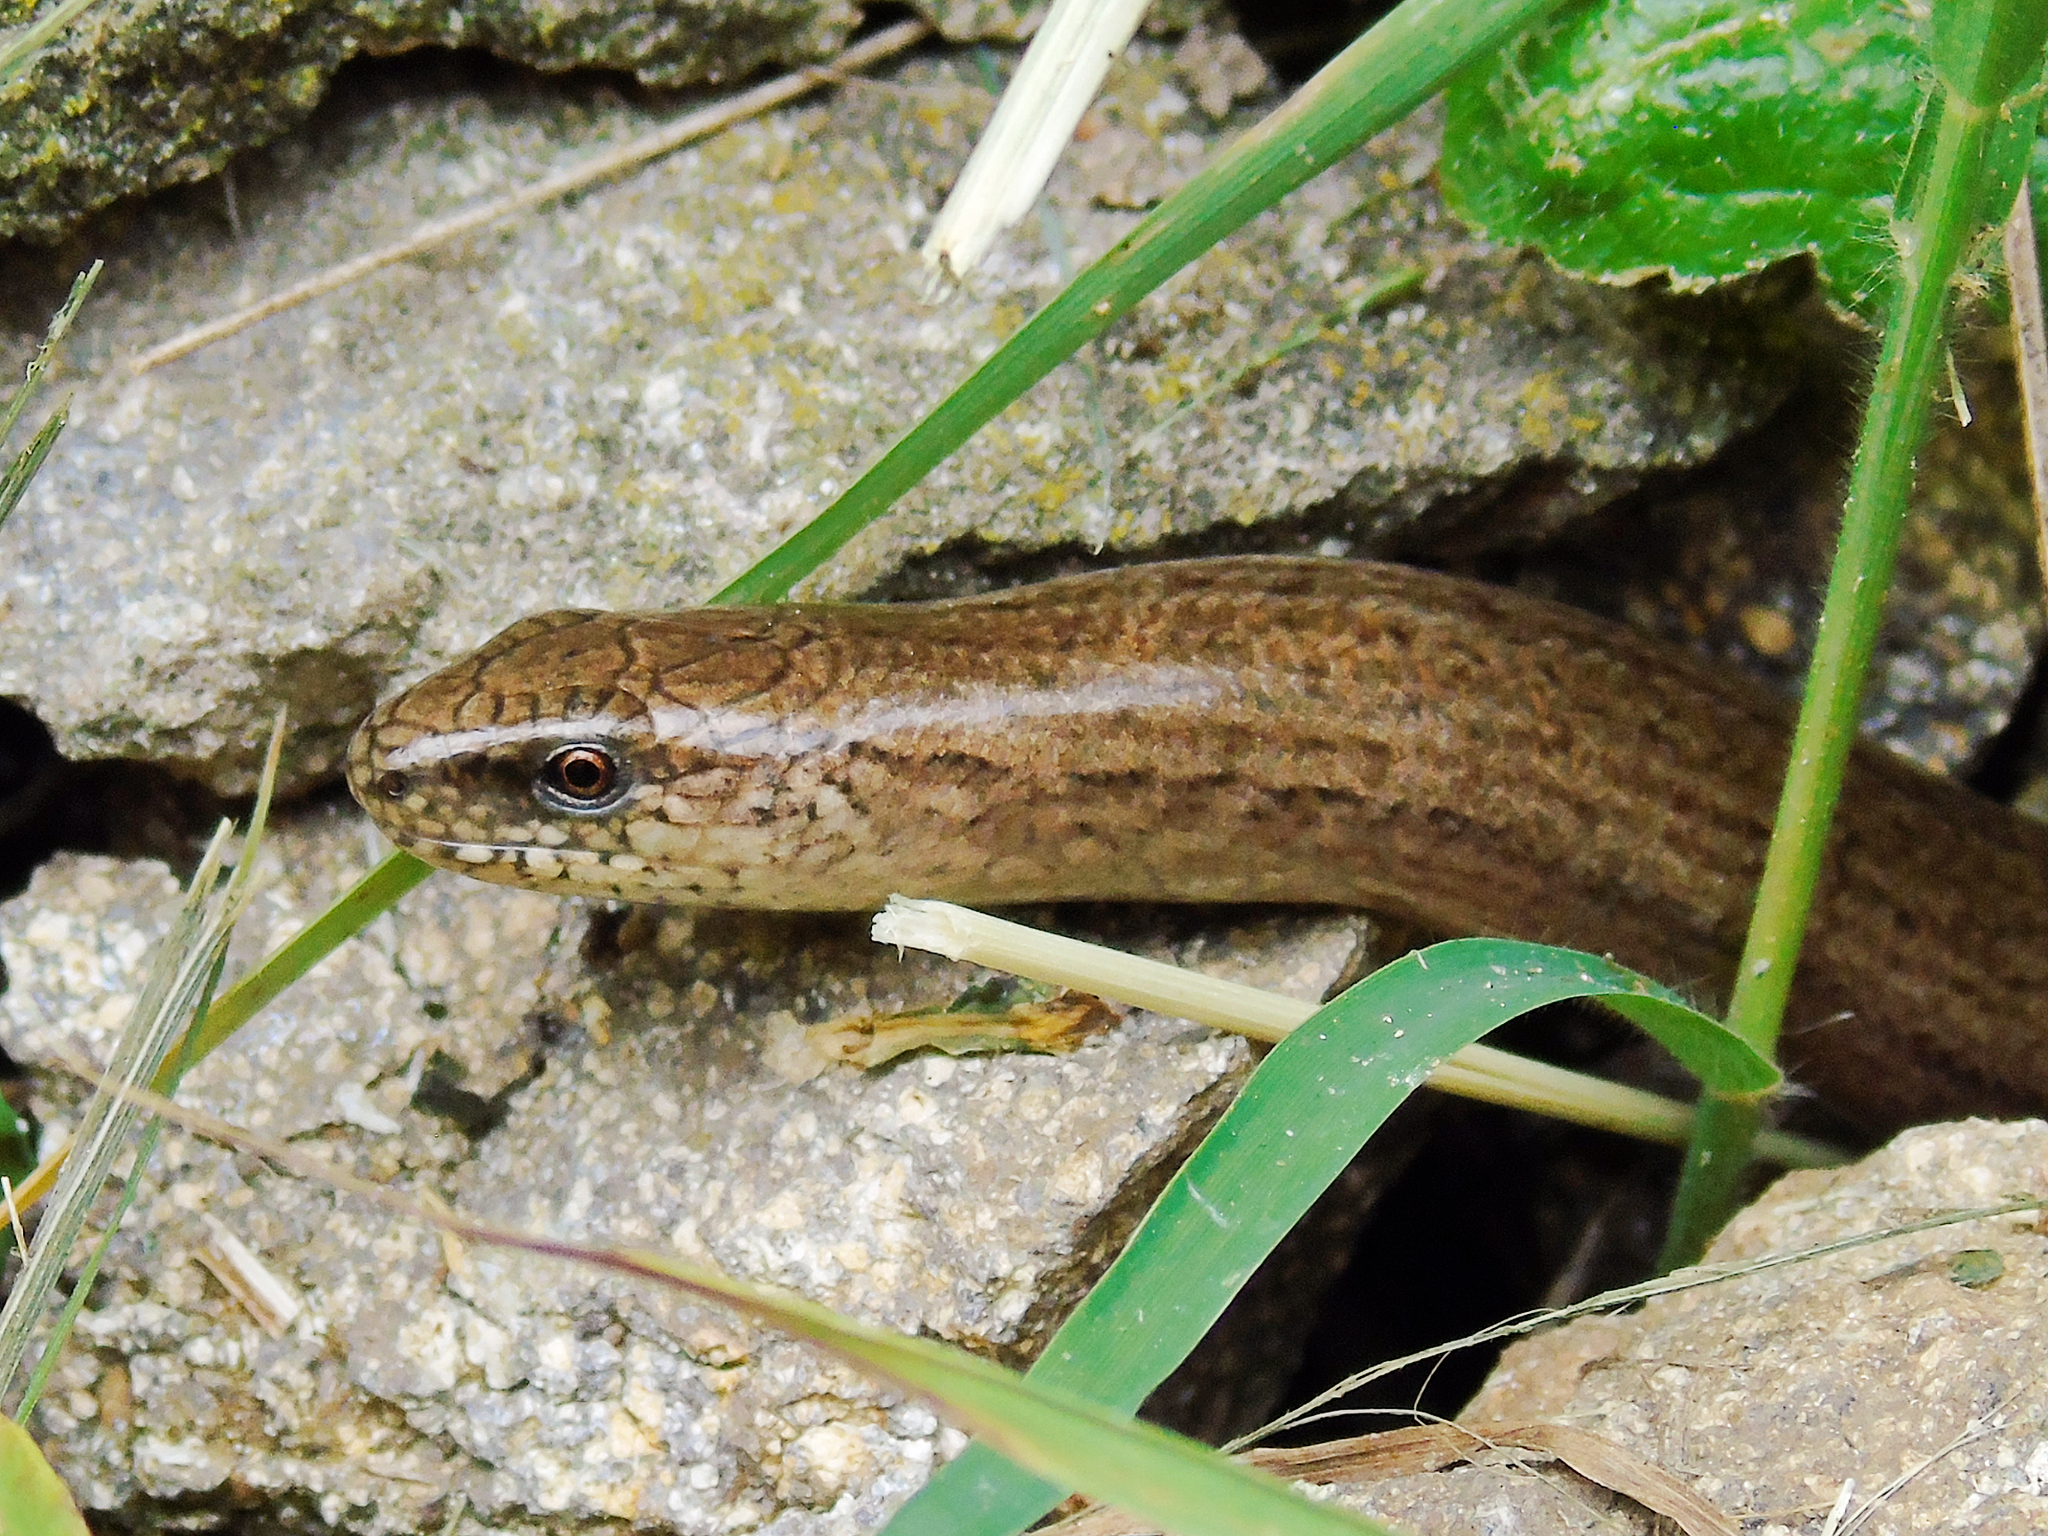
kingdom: Animalia
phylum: Chordata
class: Squamata
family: Anguidae
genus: Anguis
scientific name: Anguis fragilis
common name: Slow worm
